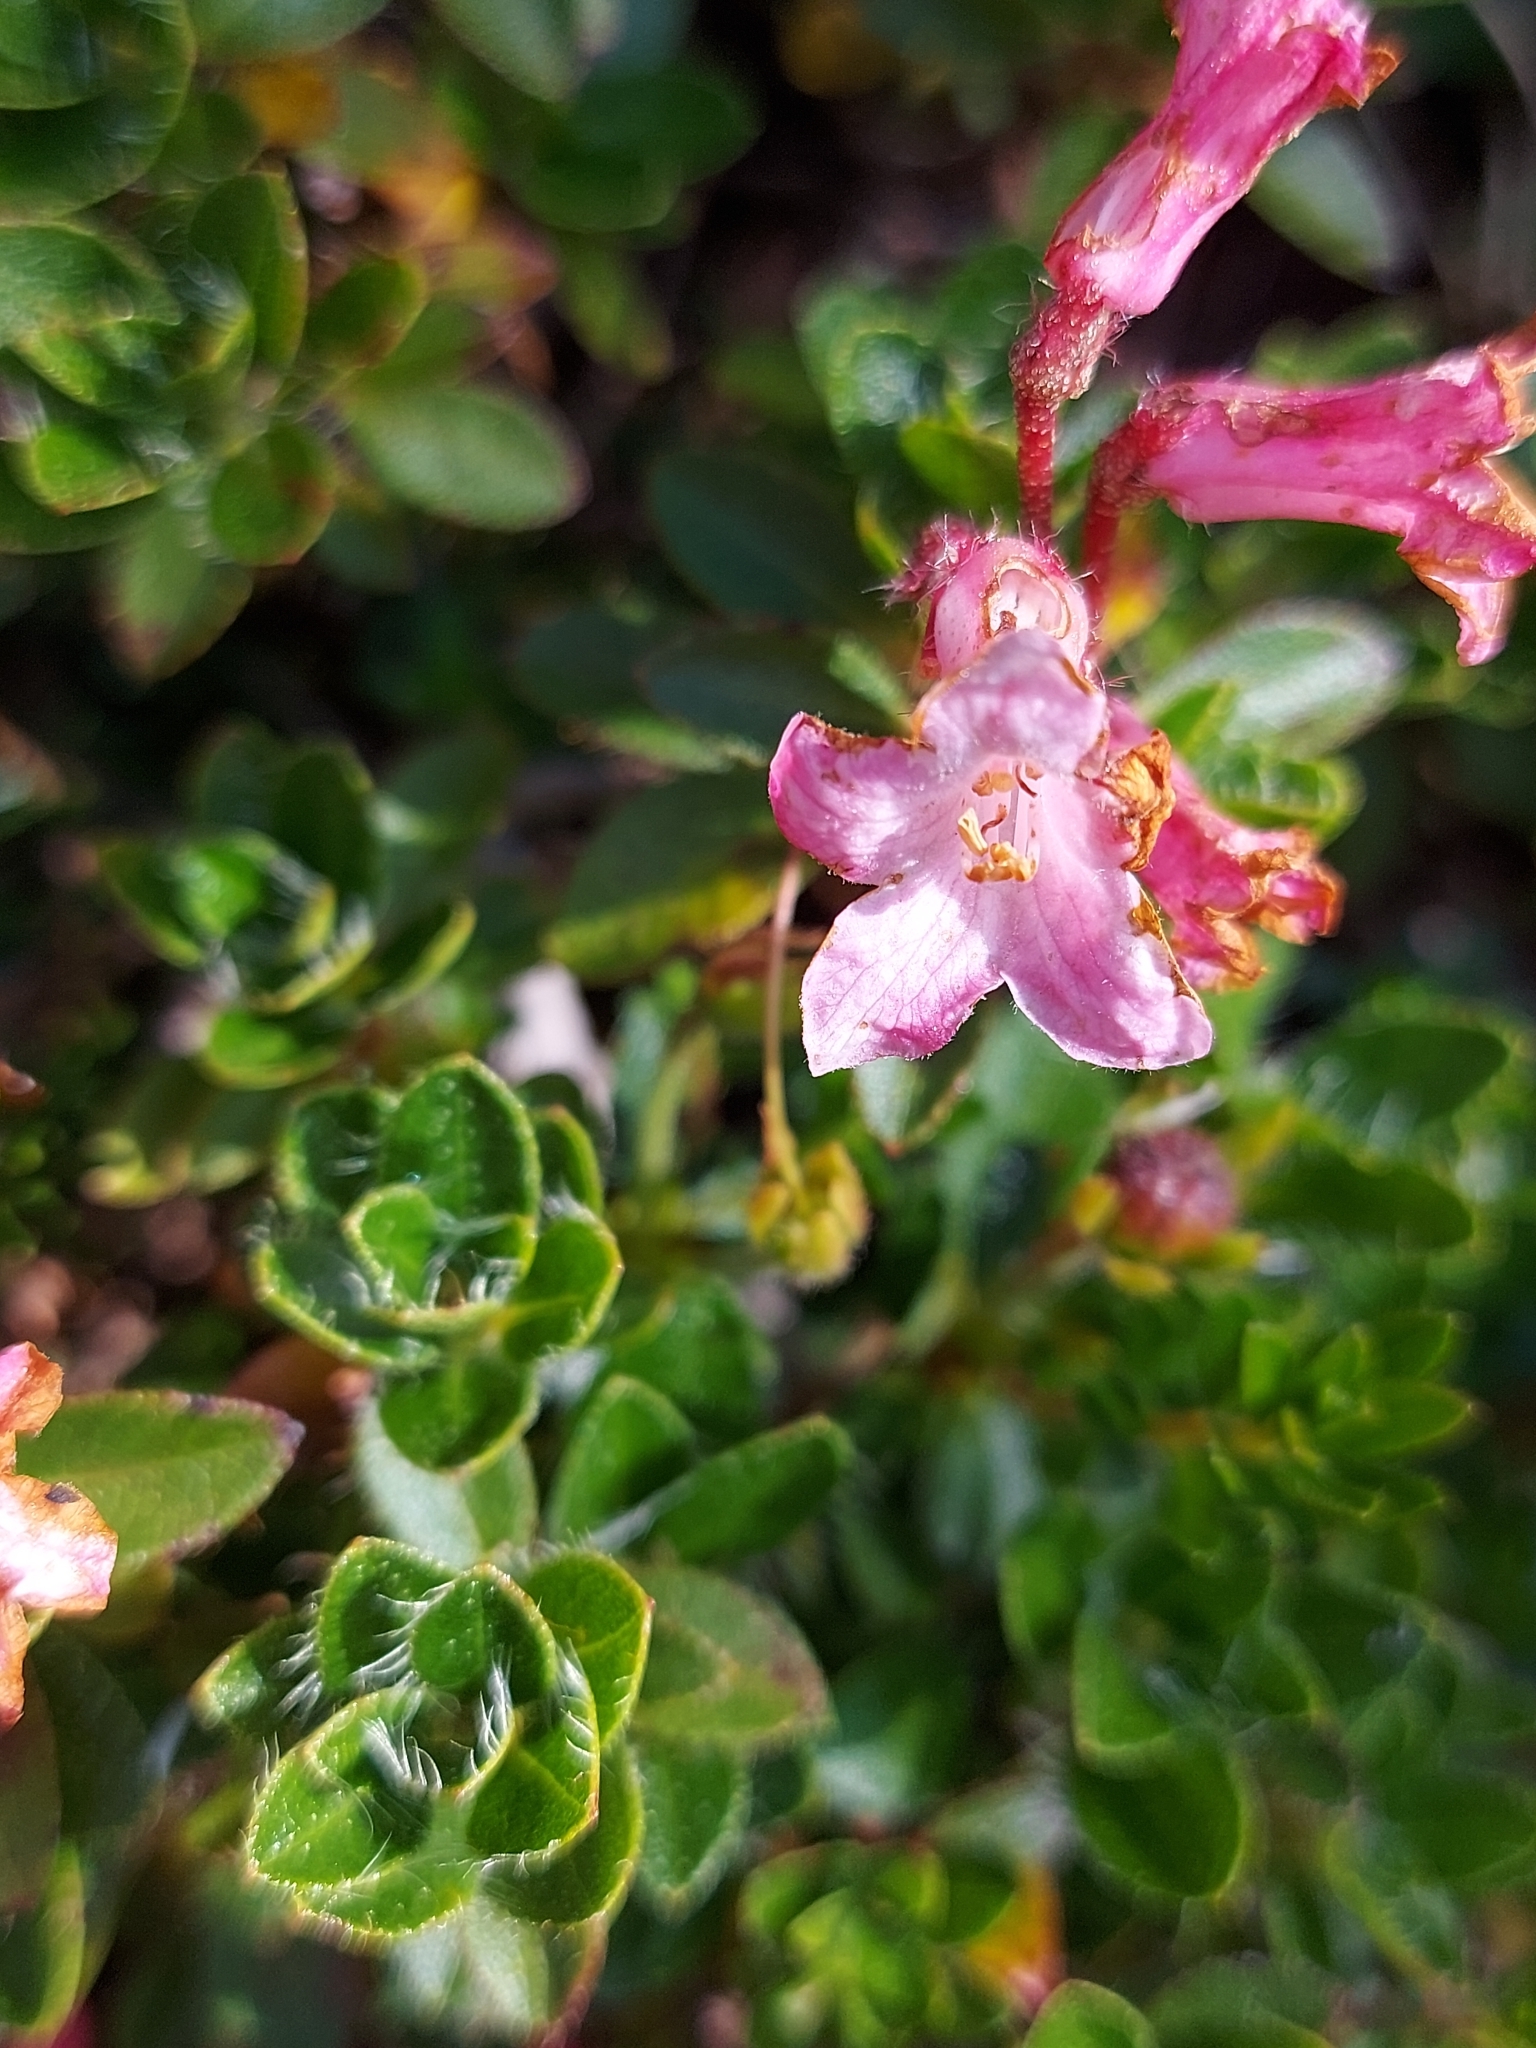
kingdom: Plantae
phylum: Tracheophyta
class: Magnoliopsida
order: Ericales
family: Ericaceae
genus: Rhododendron
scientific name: Rhododendron hirsutum
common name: Hairy alpenrose
